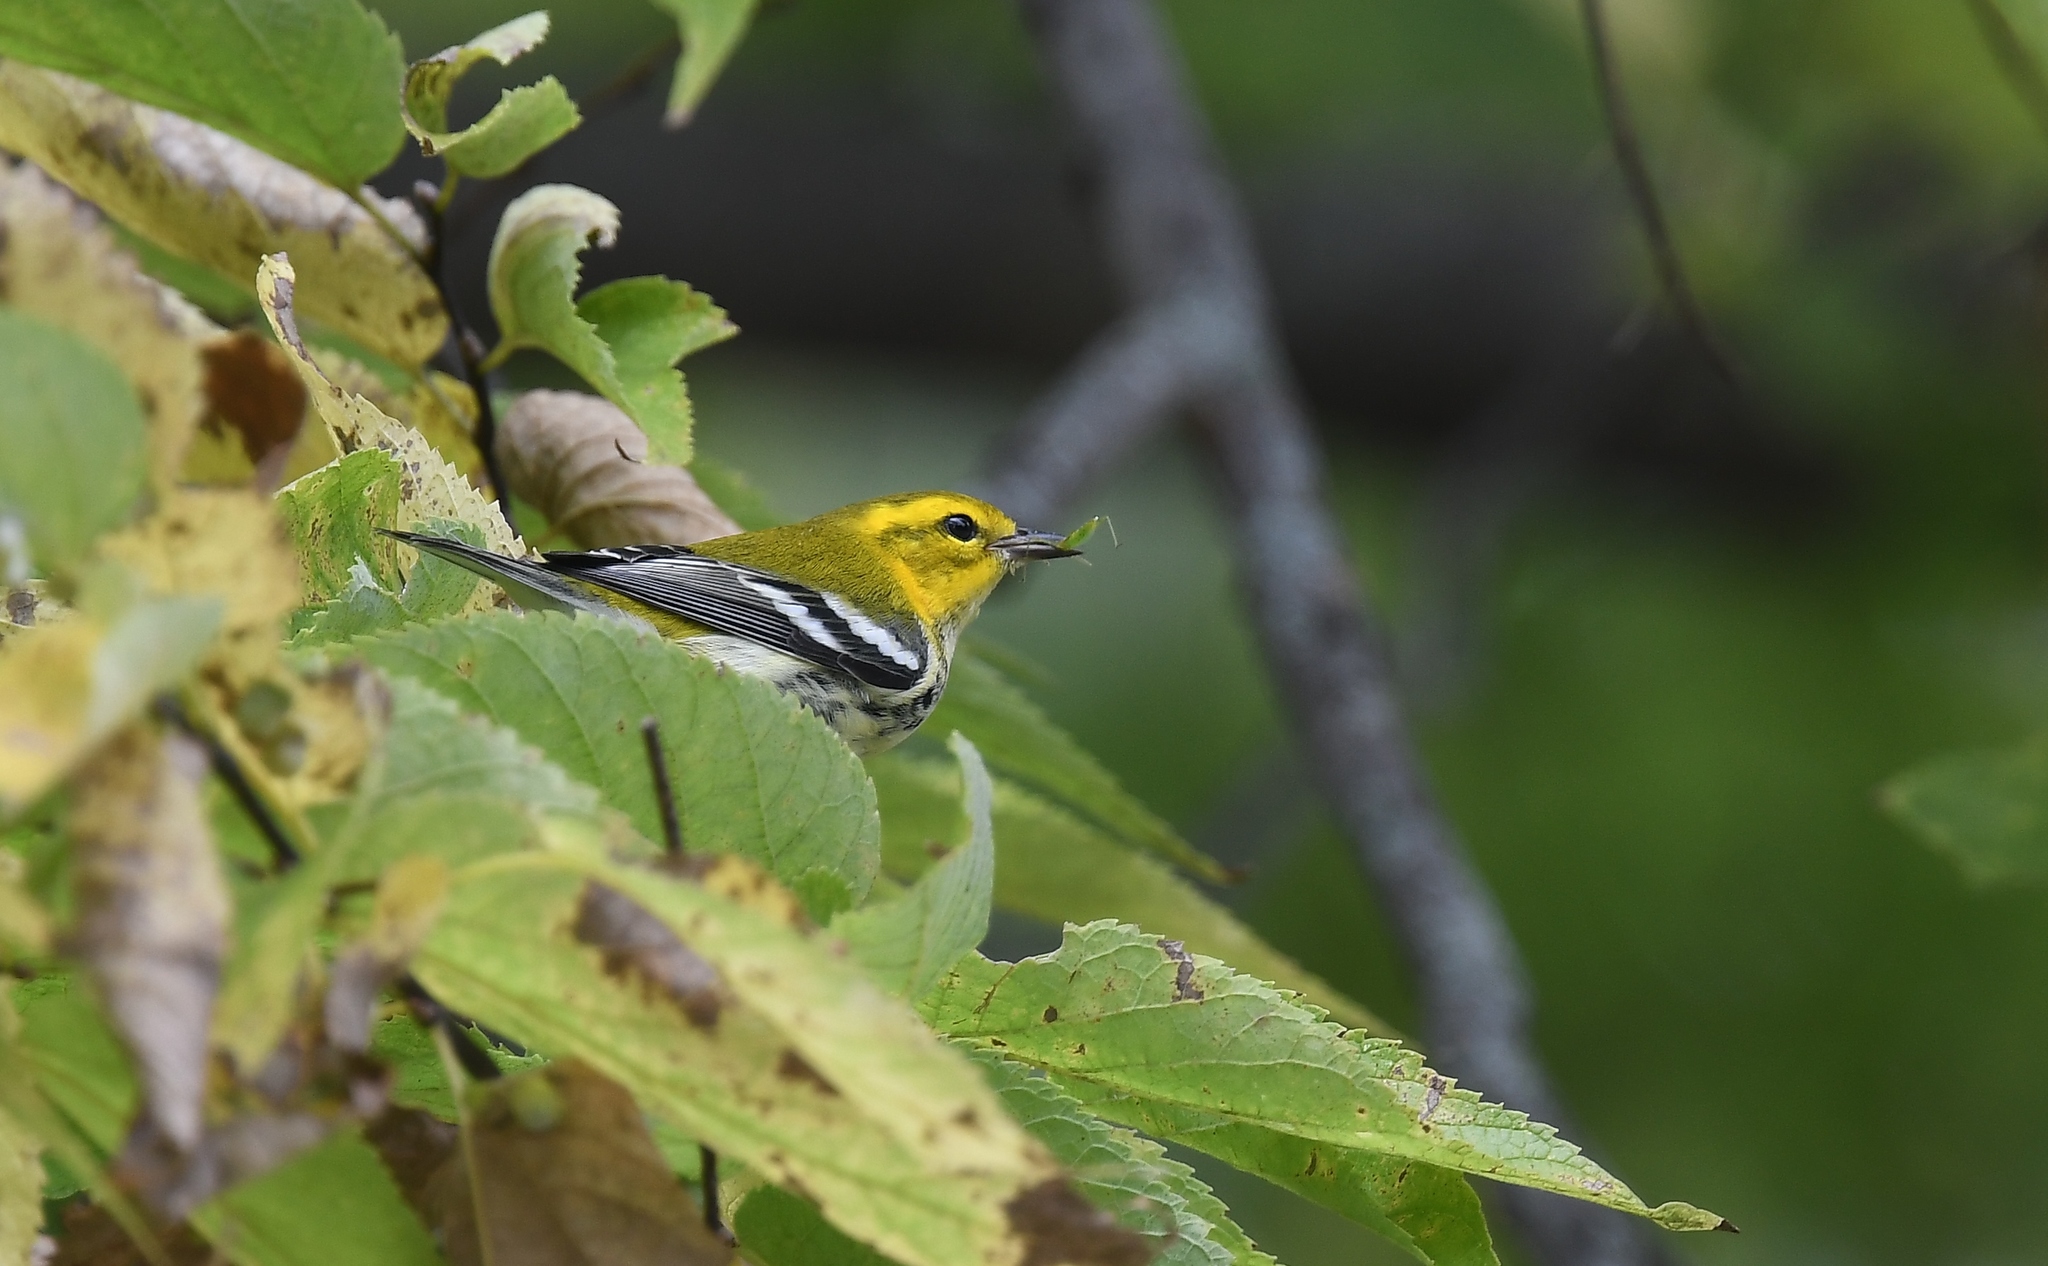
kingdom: Animalia
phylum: Chordata
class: Aves
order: Passeriformes
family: Parulidae
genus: Setophaga
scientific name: Setophaga virens
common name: Black-throated green warbler
